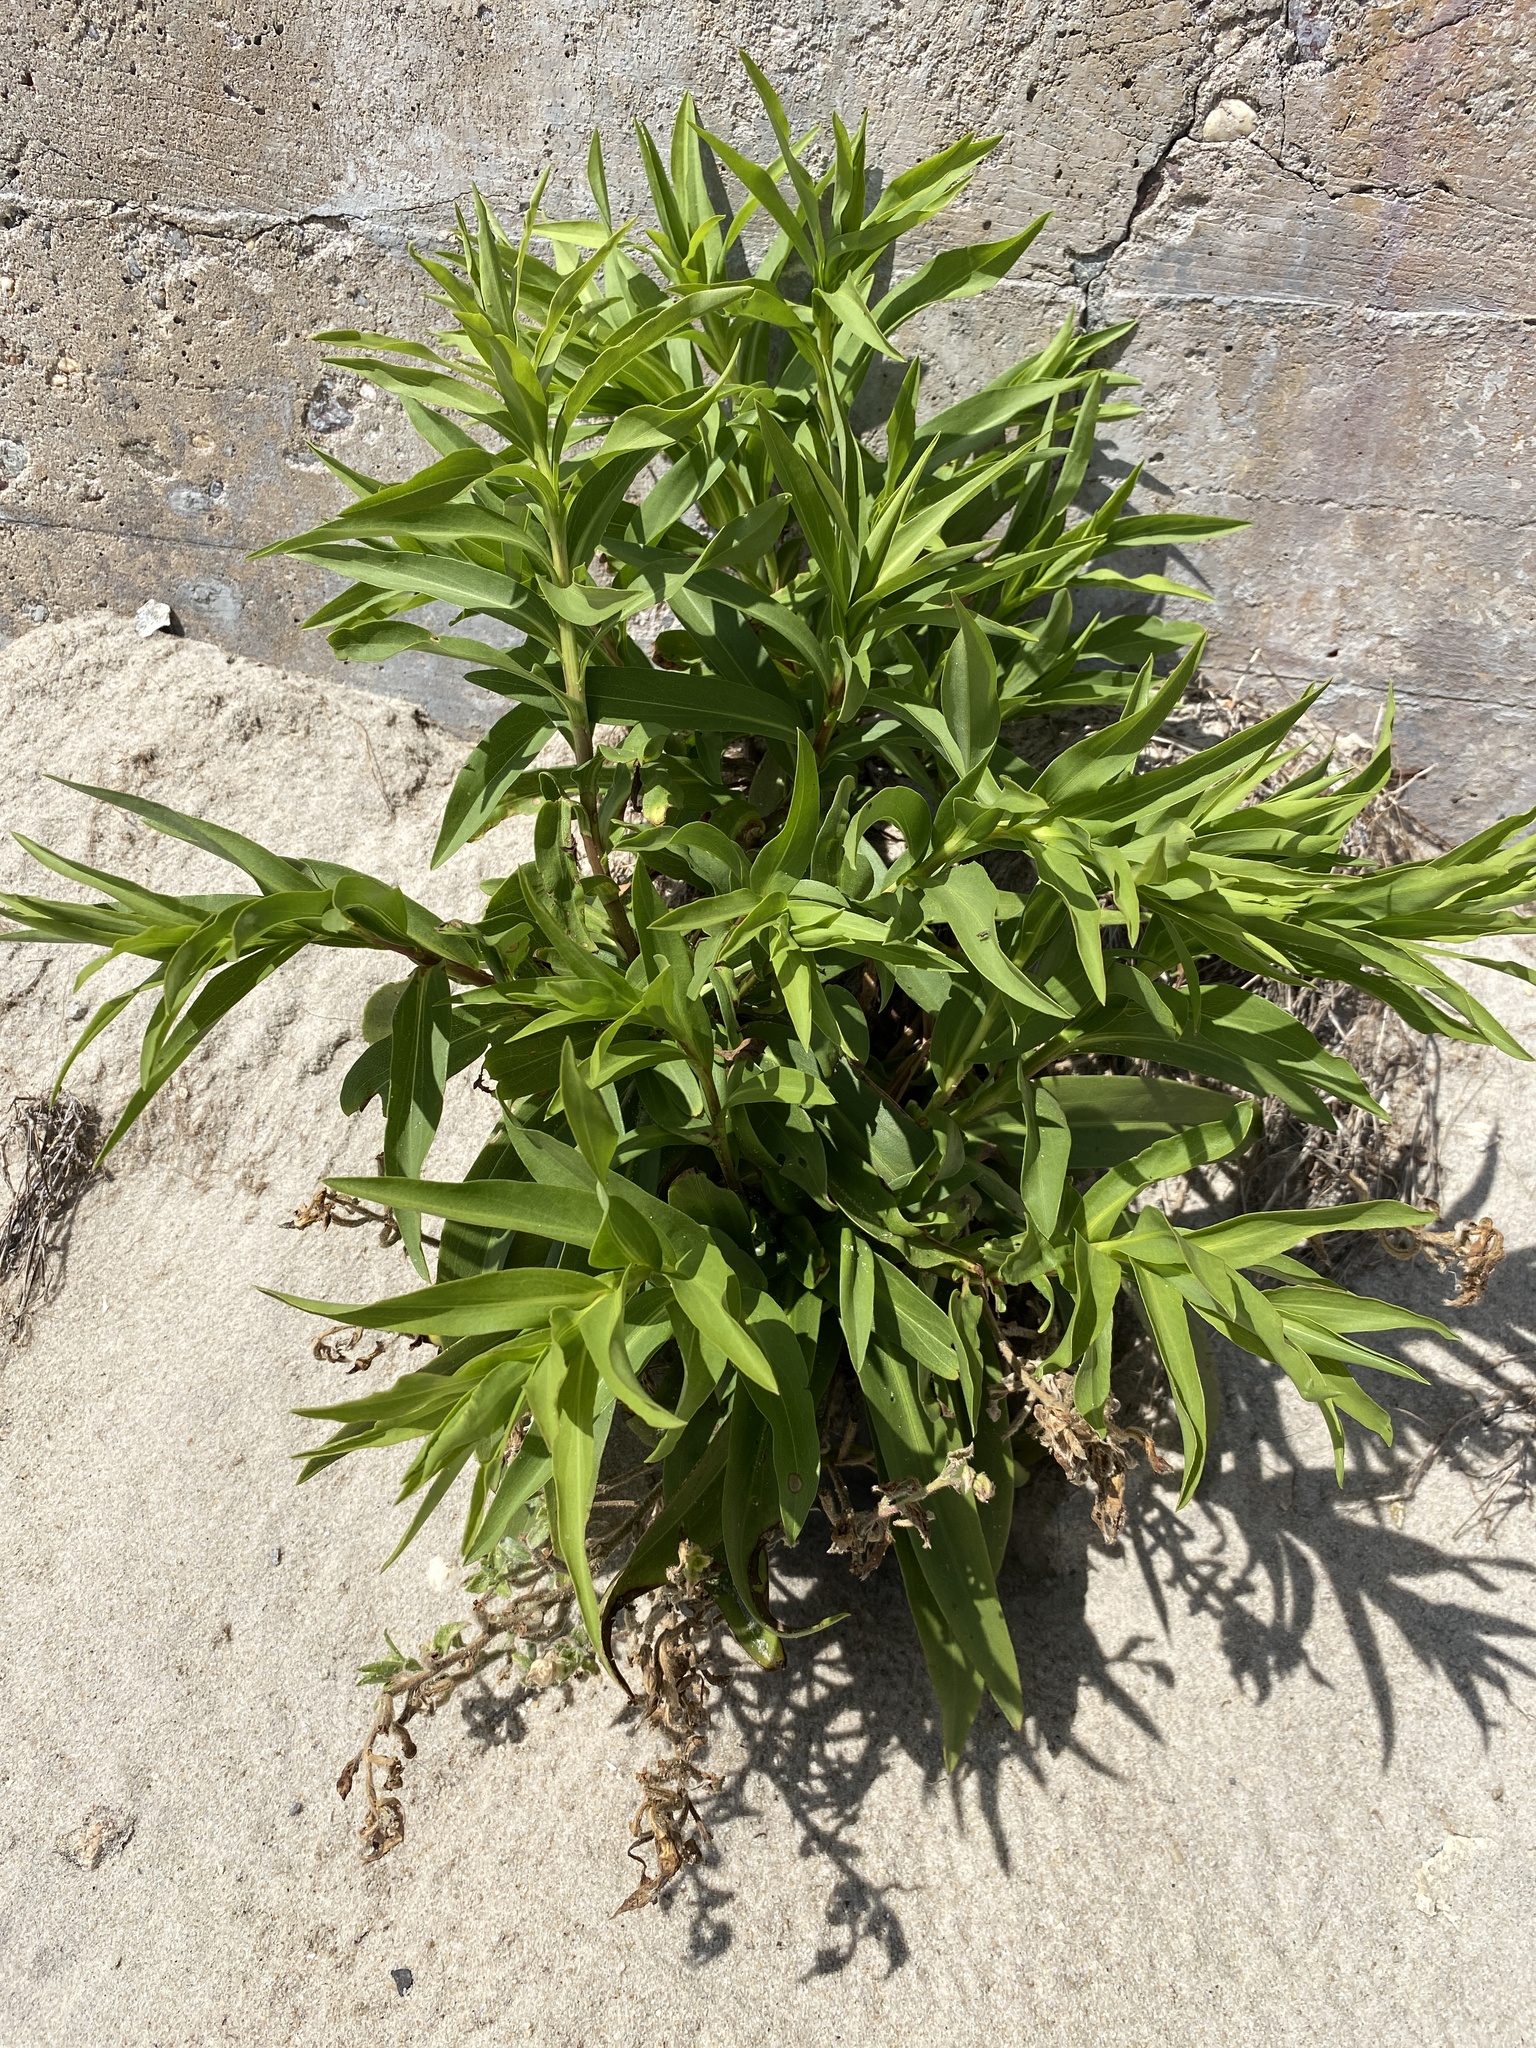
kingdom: Plantae
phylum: Tracheophyta
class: Magnoliopsida
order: Asterales
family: Asteraceae
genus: Solidago
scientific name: Solidago sempervirens
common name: Salt-marsh goldenrod
